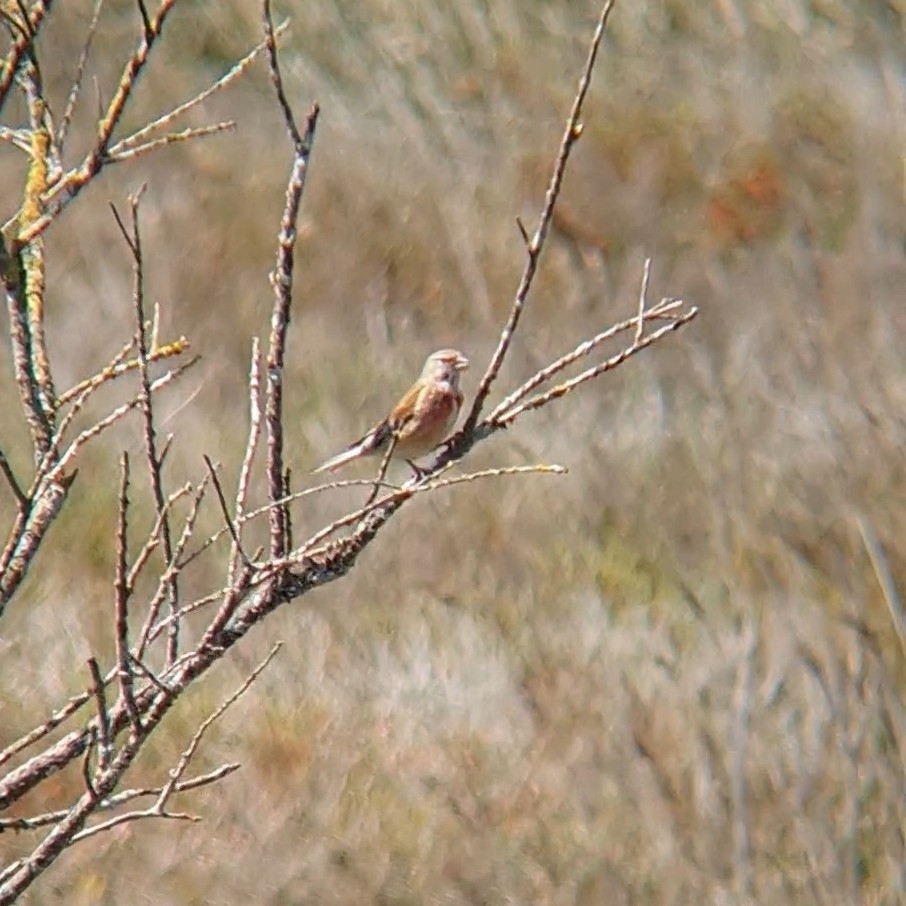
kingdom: Animalia
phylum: Chordata
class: Aves
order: Passeriformes
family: Fringillidae
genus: Linaria
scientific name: Linaria cannabina
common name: Common linnet
